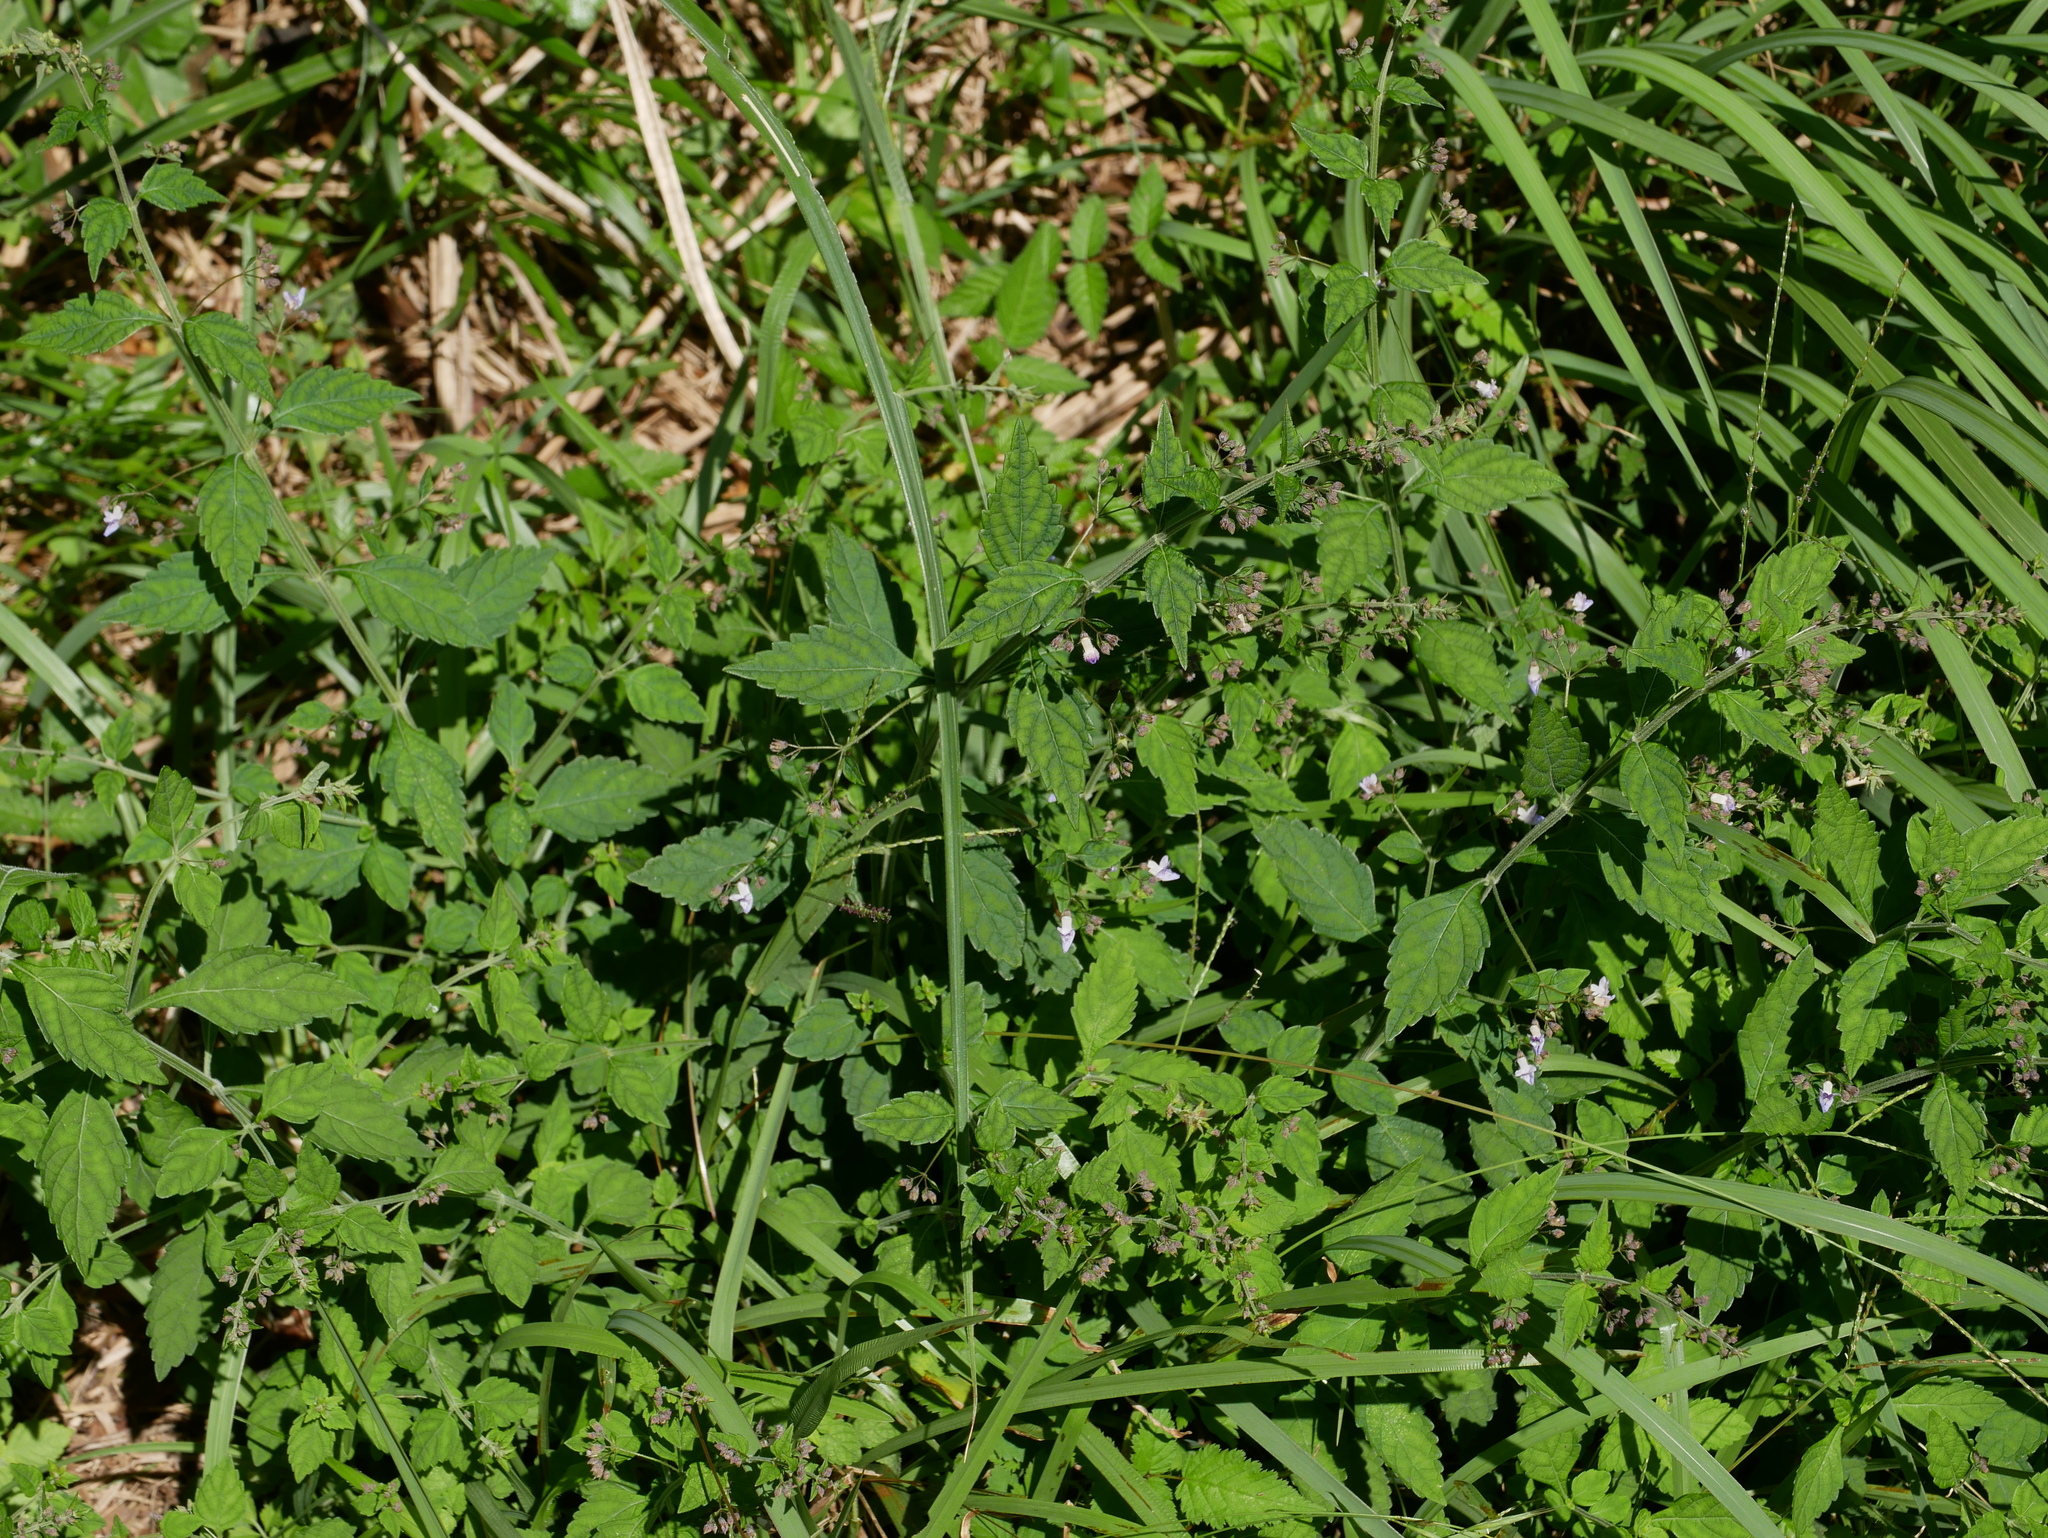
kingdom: Plantae
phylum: Tracheophyta
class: Magnoliopsida
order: Lamiales
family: Lamiaceae
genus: Isodon
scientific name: Isodon amethystoides
